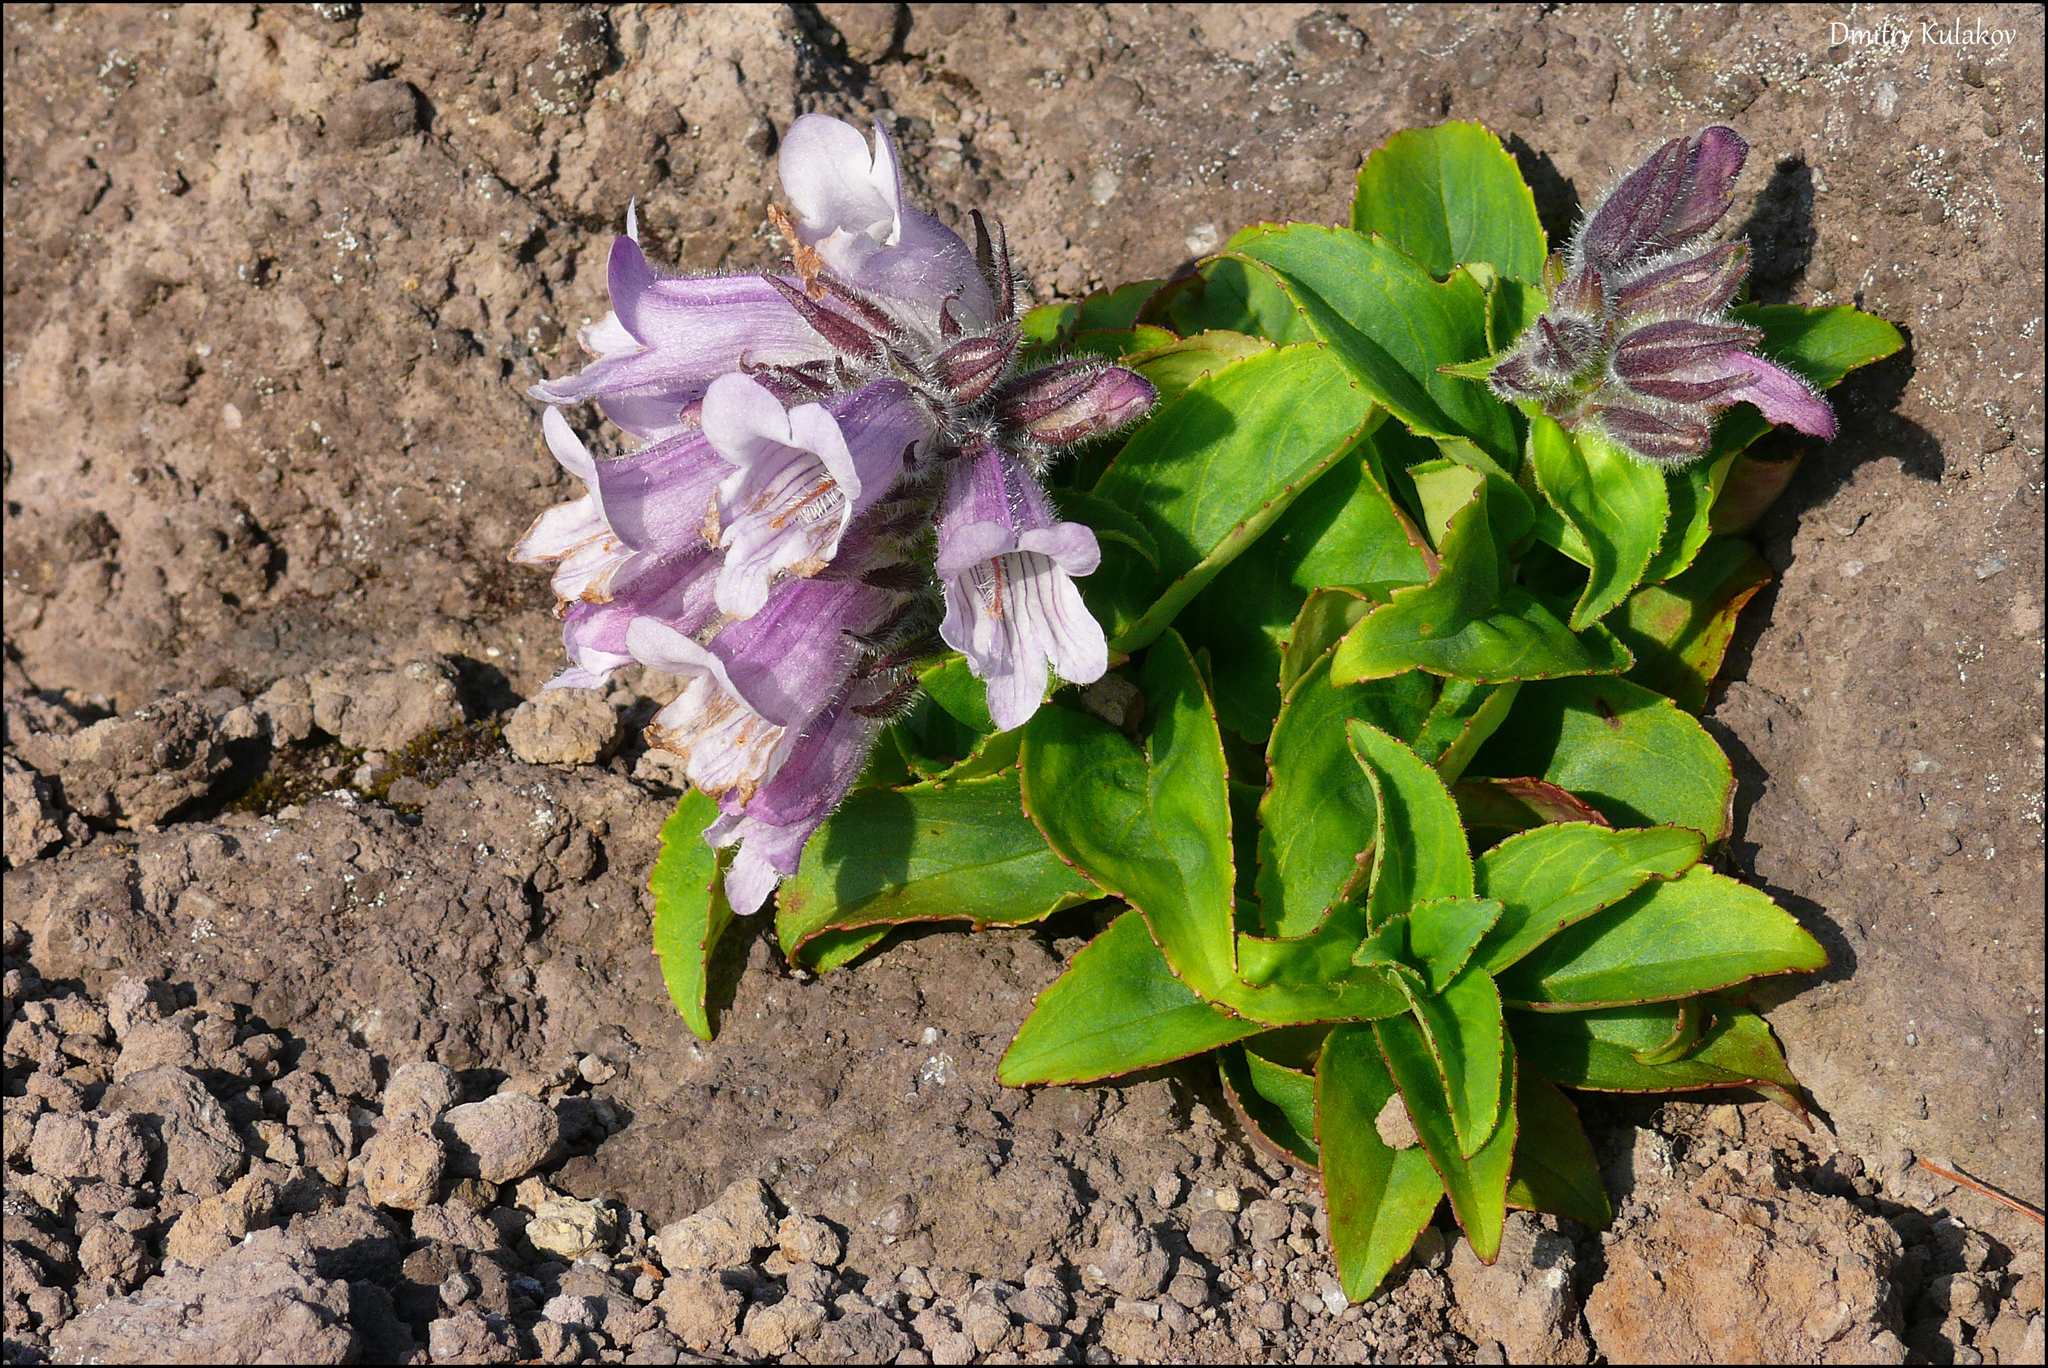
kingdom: Plantae
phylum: Tracheophyta
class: Magnoliopsida
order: Lamiales
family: Plantaginaceae
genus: Pennellianthus
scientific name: Pennellianthus frutescens
